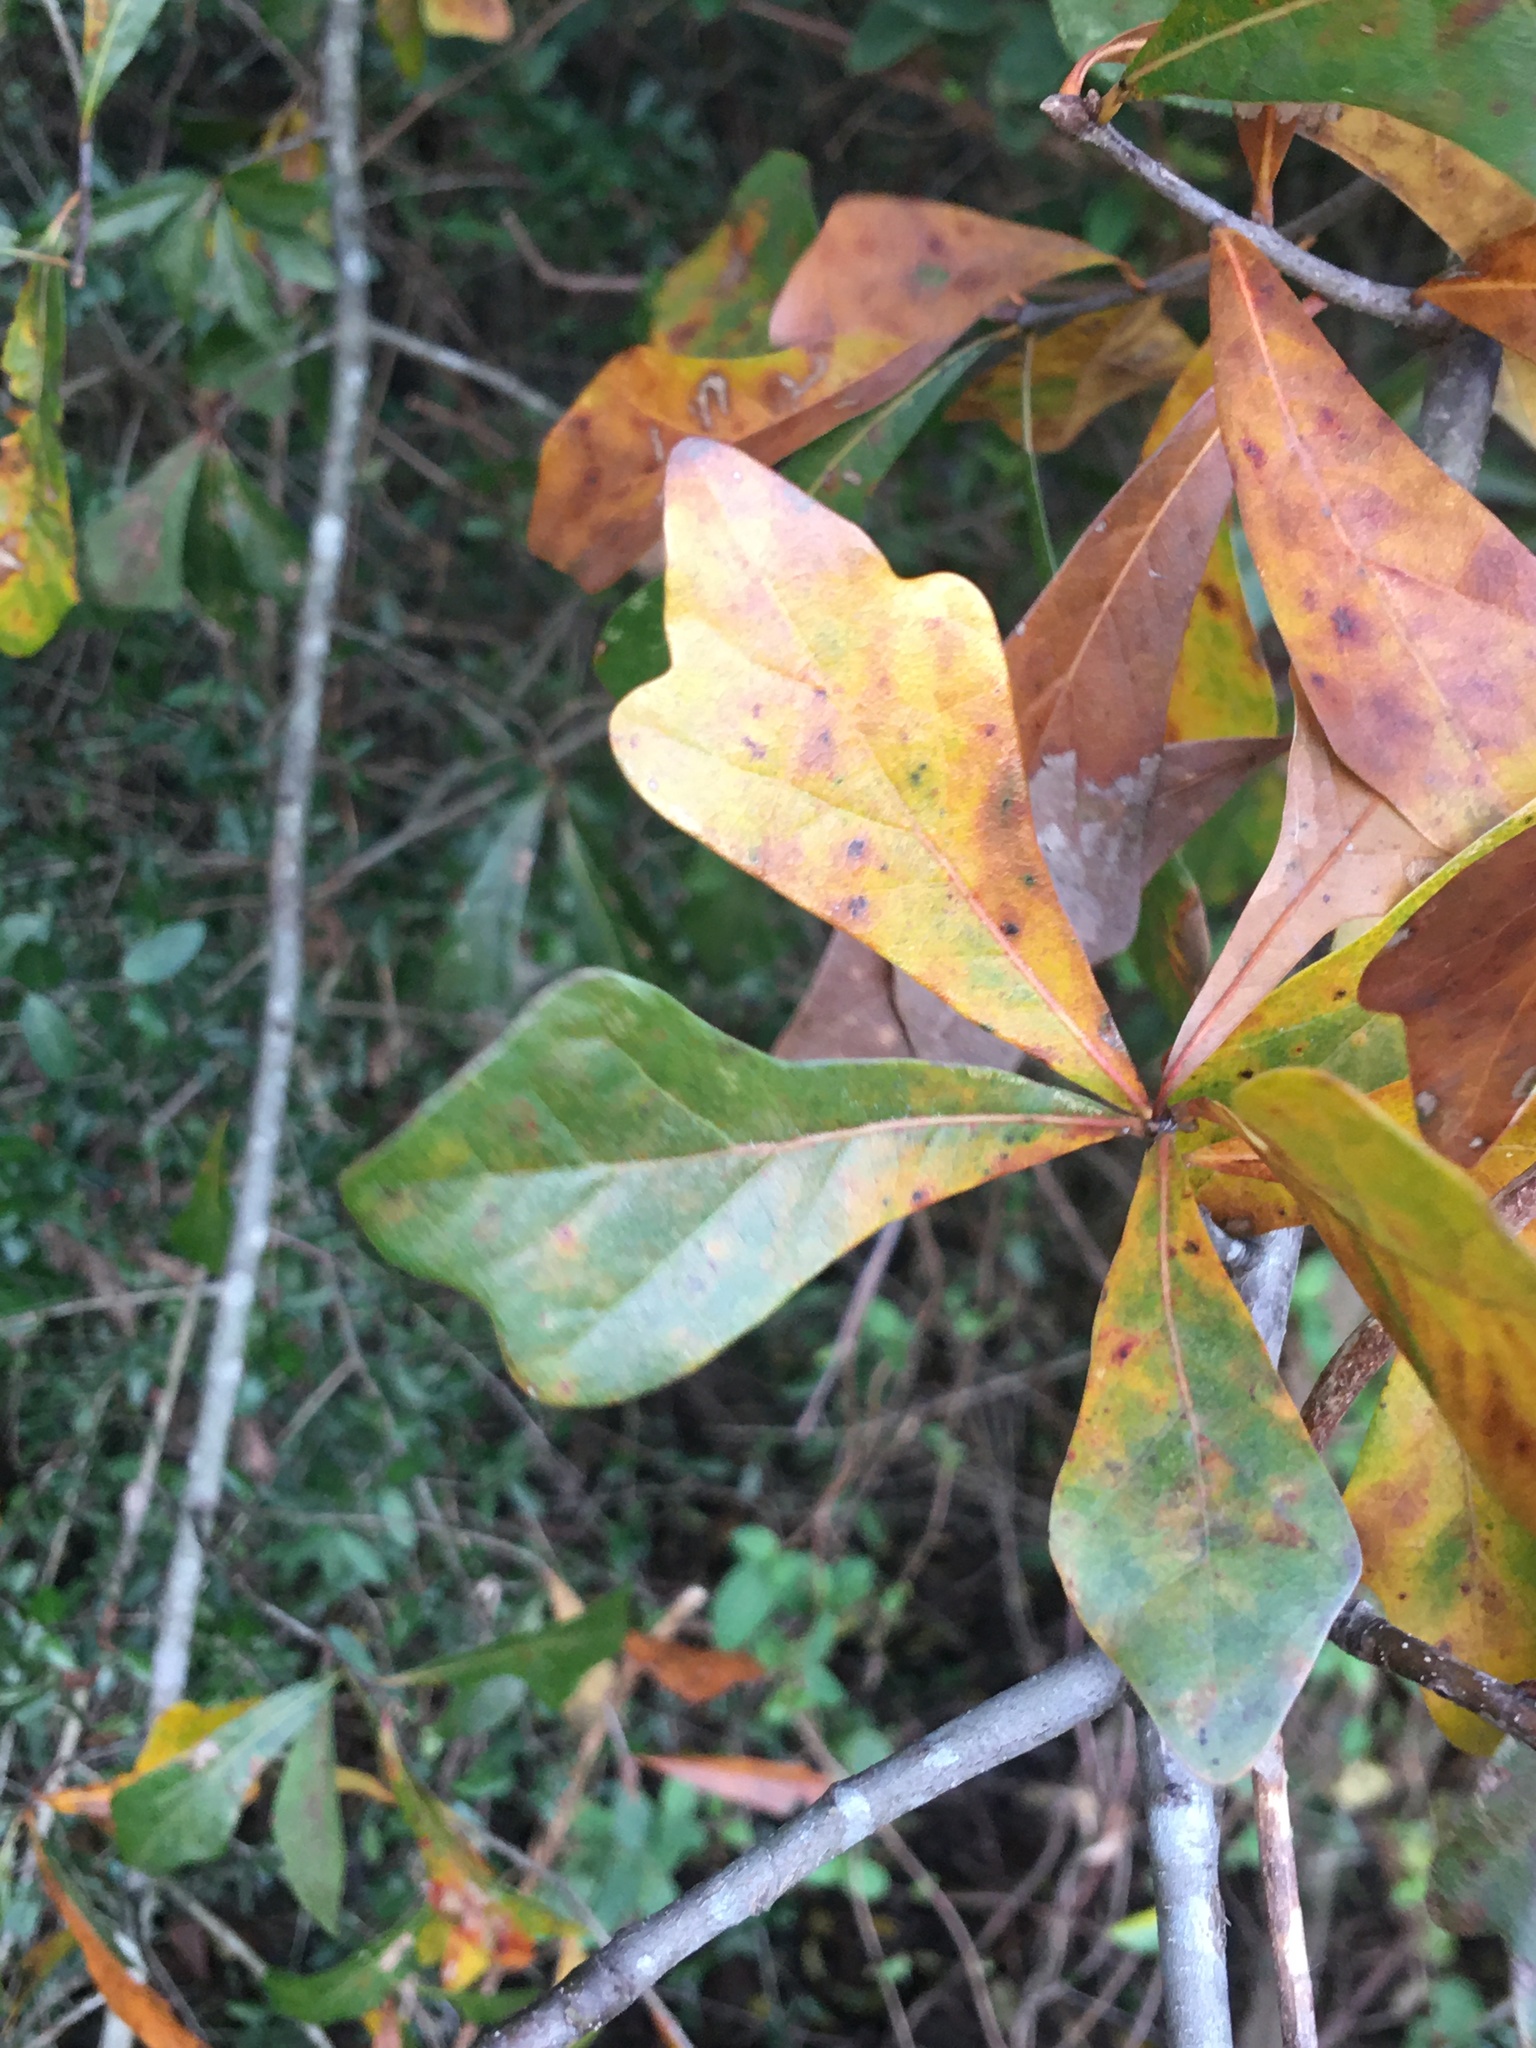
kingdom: Plantae
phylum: Tracheophyta
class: Magnoliopsida
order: Fagales
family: Fagaceae
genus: Quercus
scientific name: Quercus nigra
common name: Water oak
